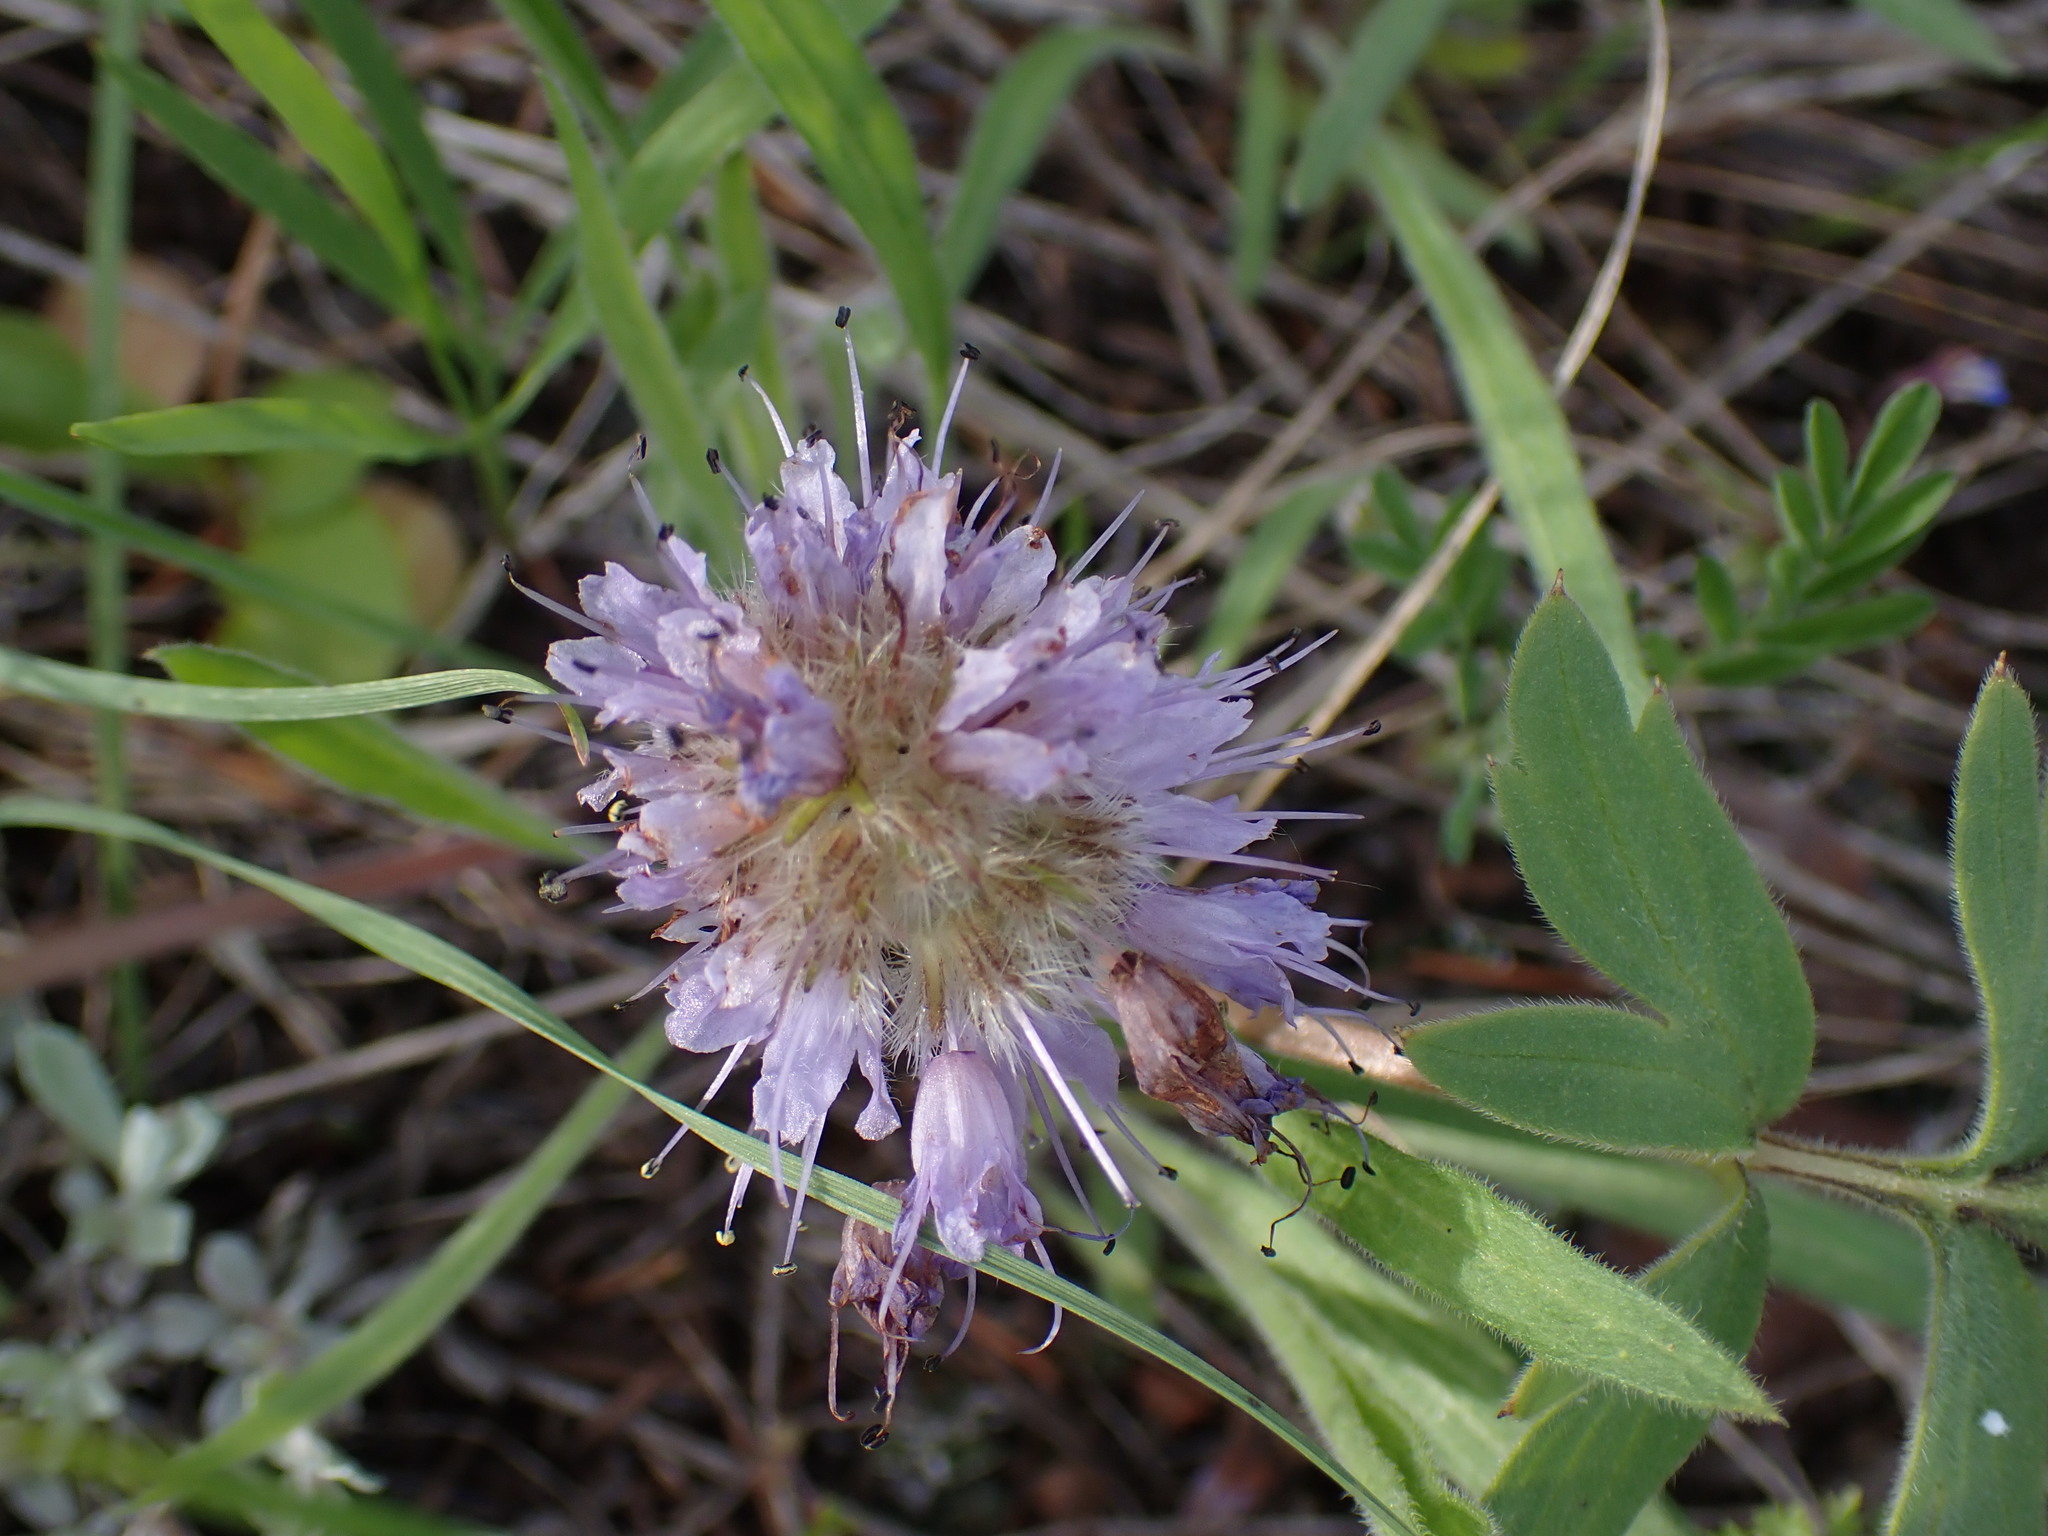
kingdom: Plantae
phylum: Tracheophyta
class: Magnoliopsida
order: Boraginales
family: Hydrophyllaceae
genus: Hydrophyllum
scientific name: Hydrophyllum capitatum
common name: Woollen-breeches
